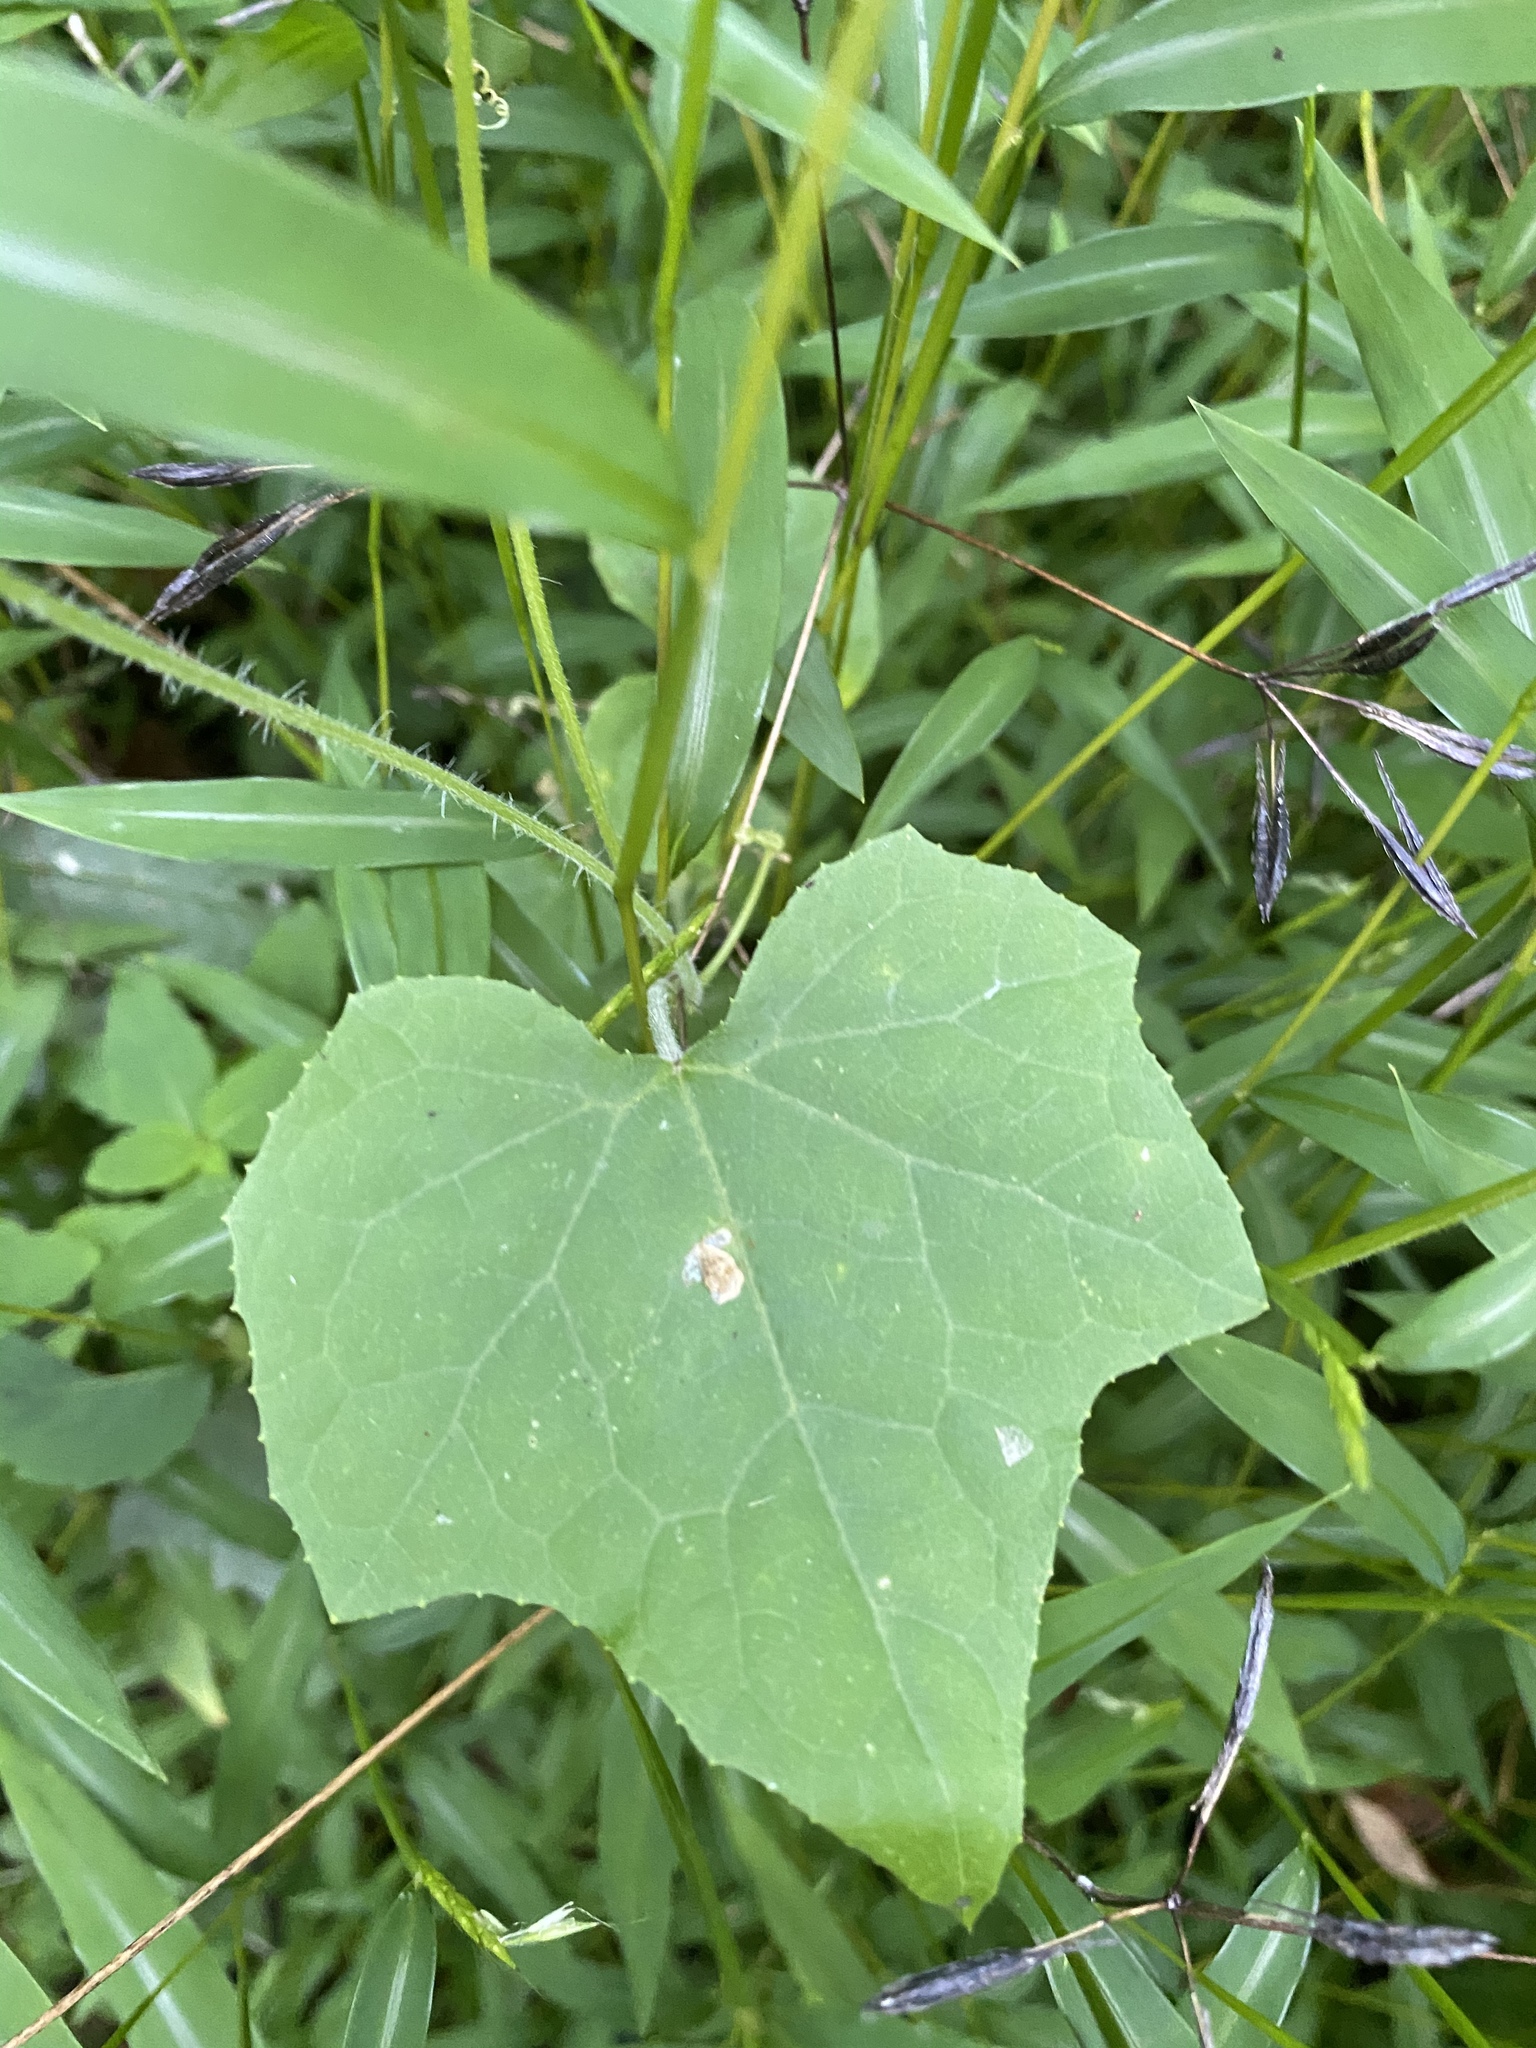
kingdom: Plantae
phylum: Tracheophyta
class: Magnoliopsida
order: Cucurbitales
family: Cucurbitaceae
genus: Sicyos
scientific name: Sicyos angulatus
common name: Angled burr cucumber
